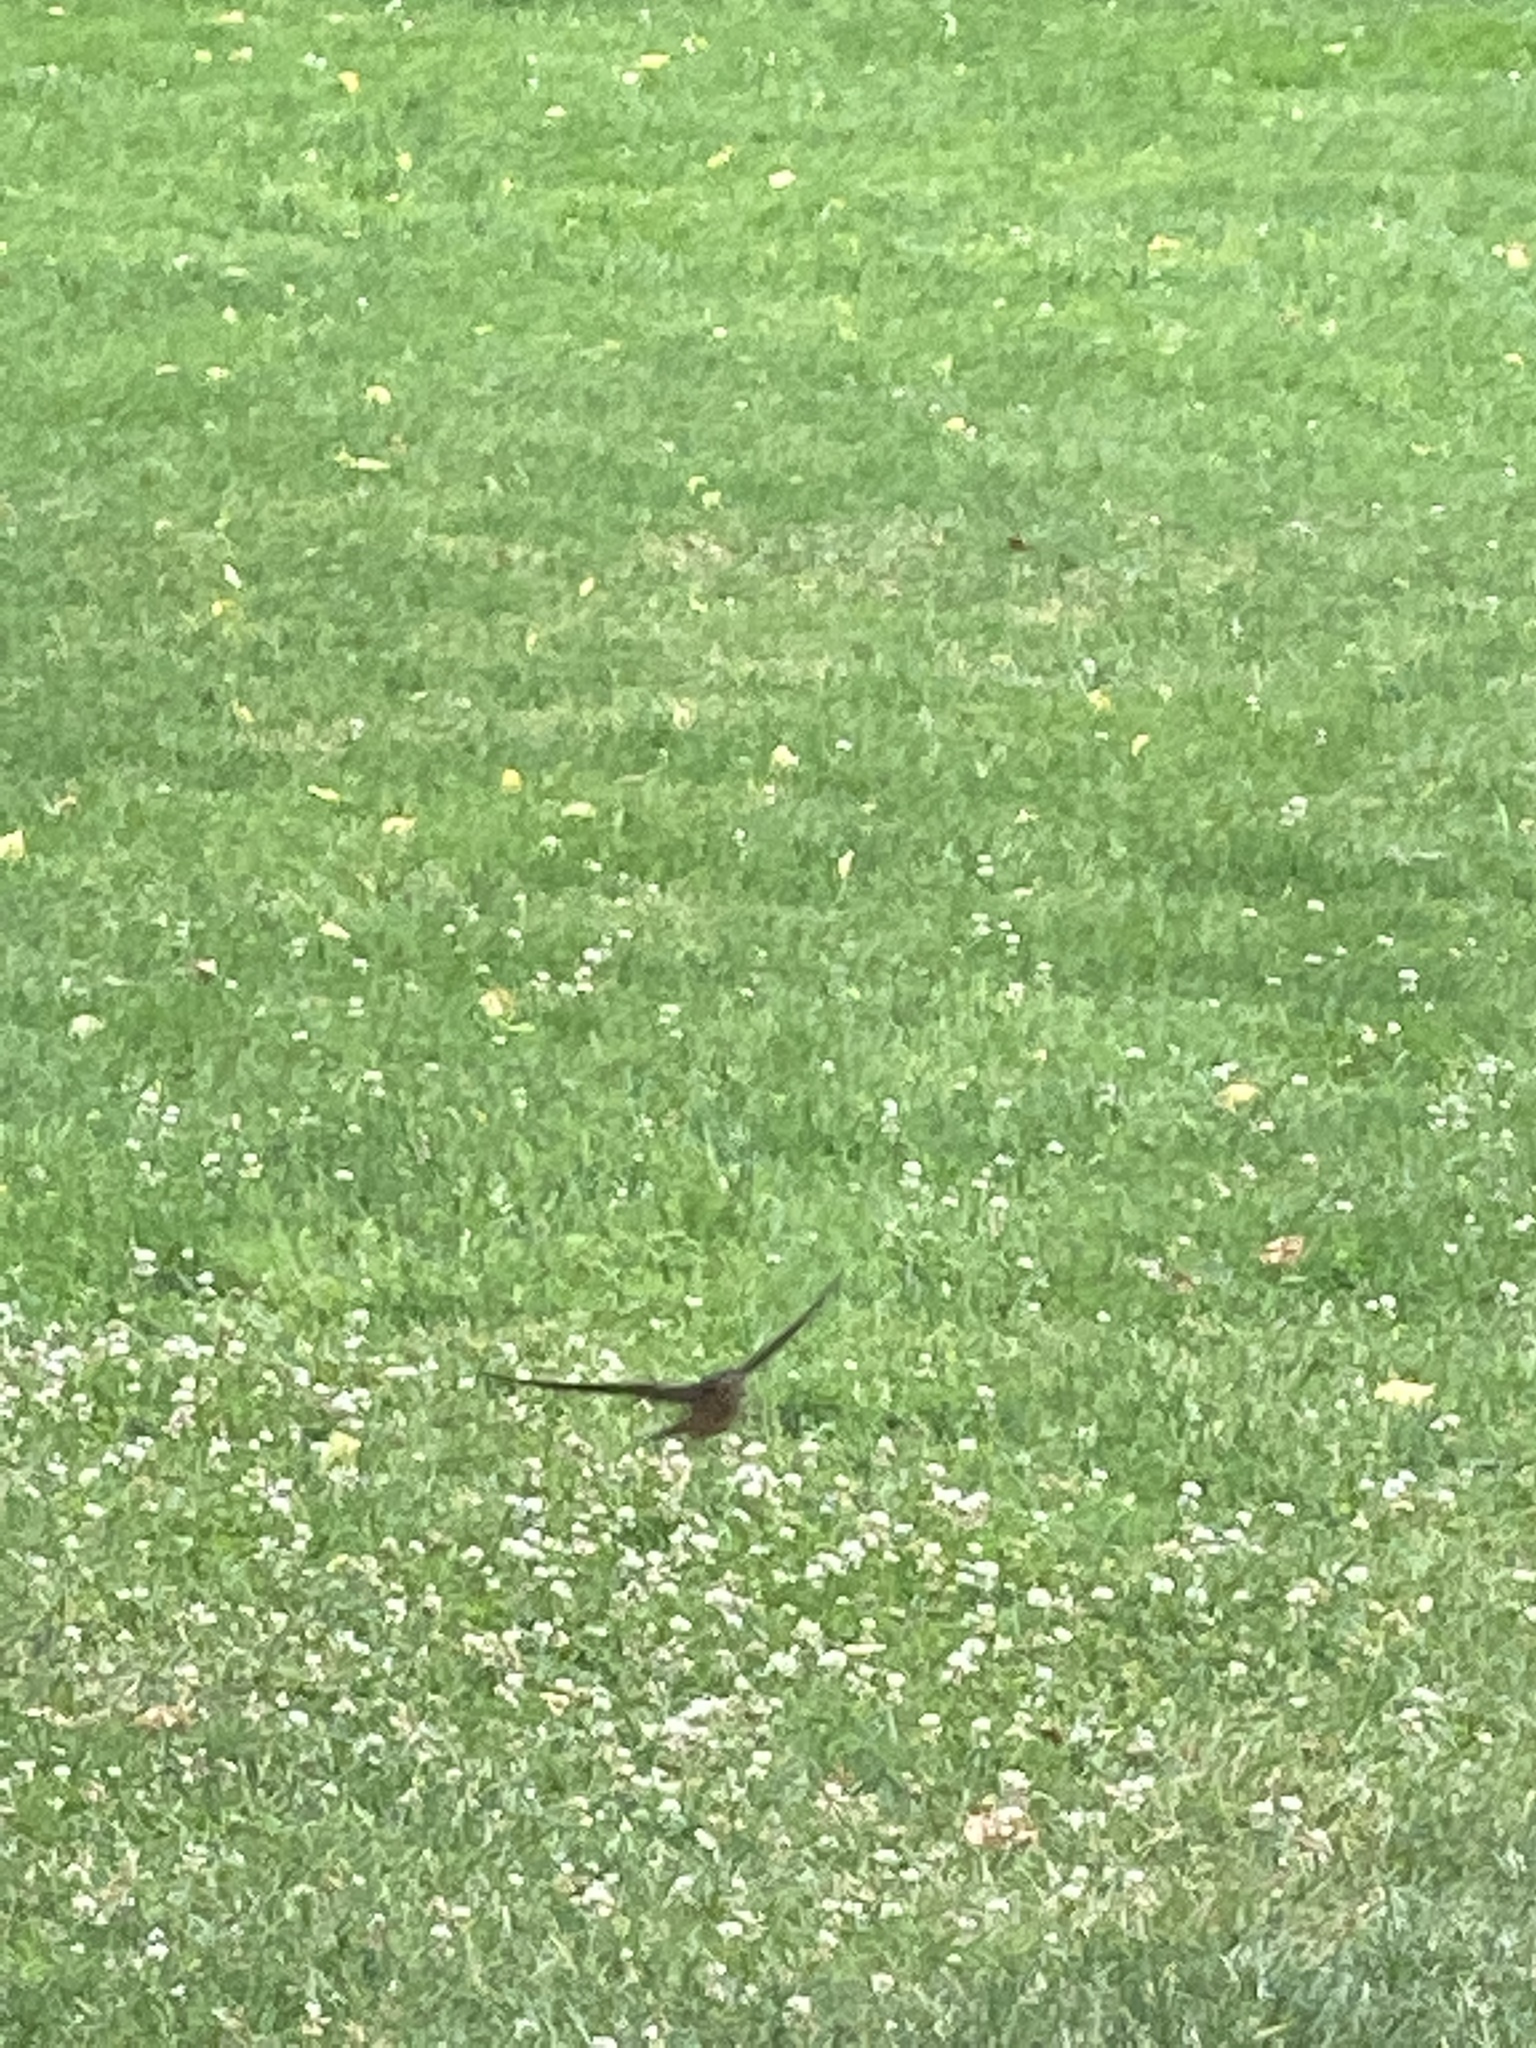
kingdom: Animalia
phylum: Chordata
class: Aves
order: Passeriformes
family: Hirundinidae
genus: Hirundo
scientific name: Hirundo rustica
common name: Barn swallow
